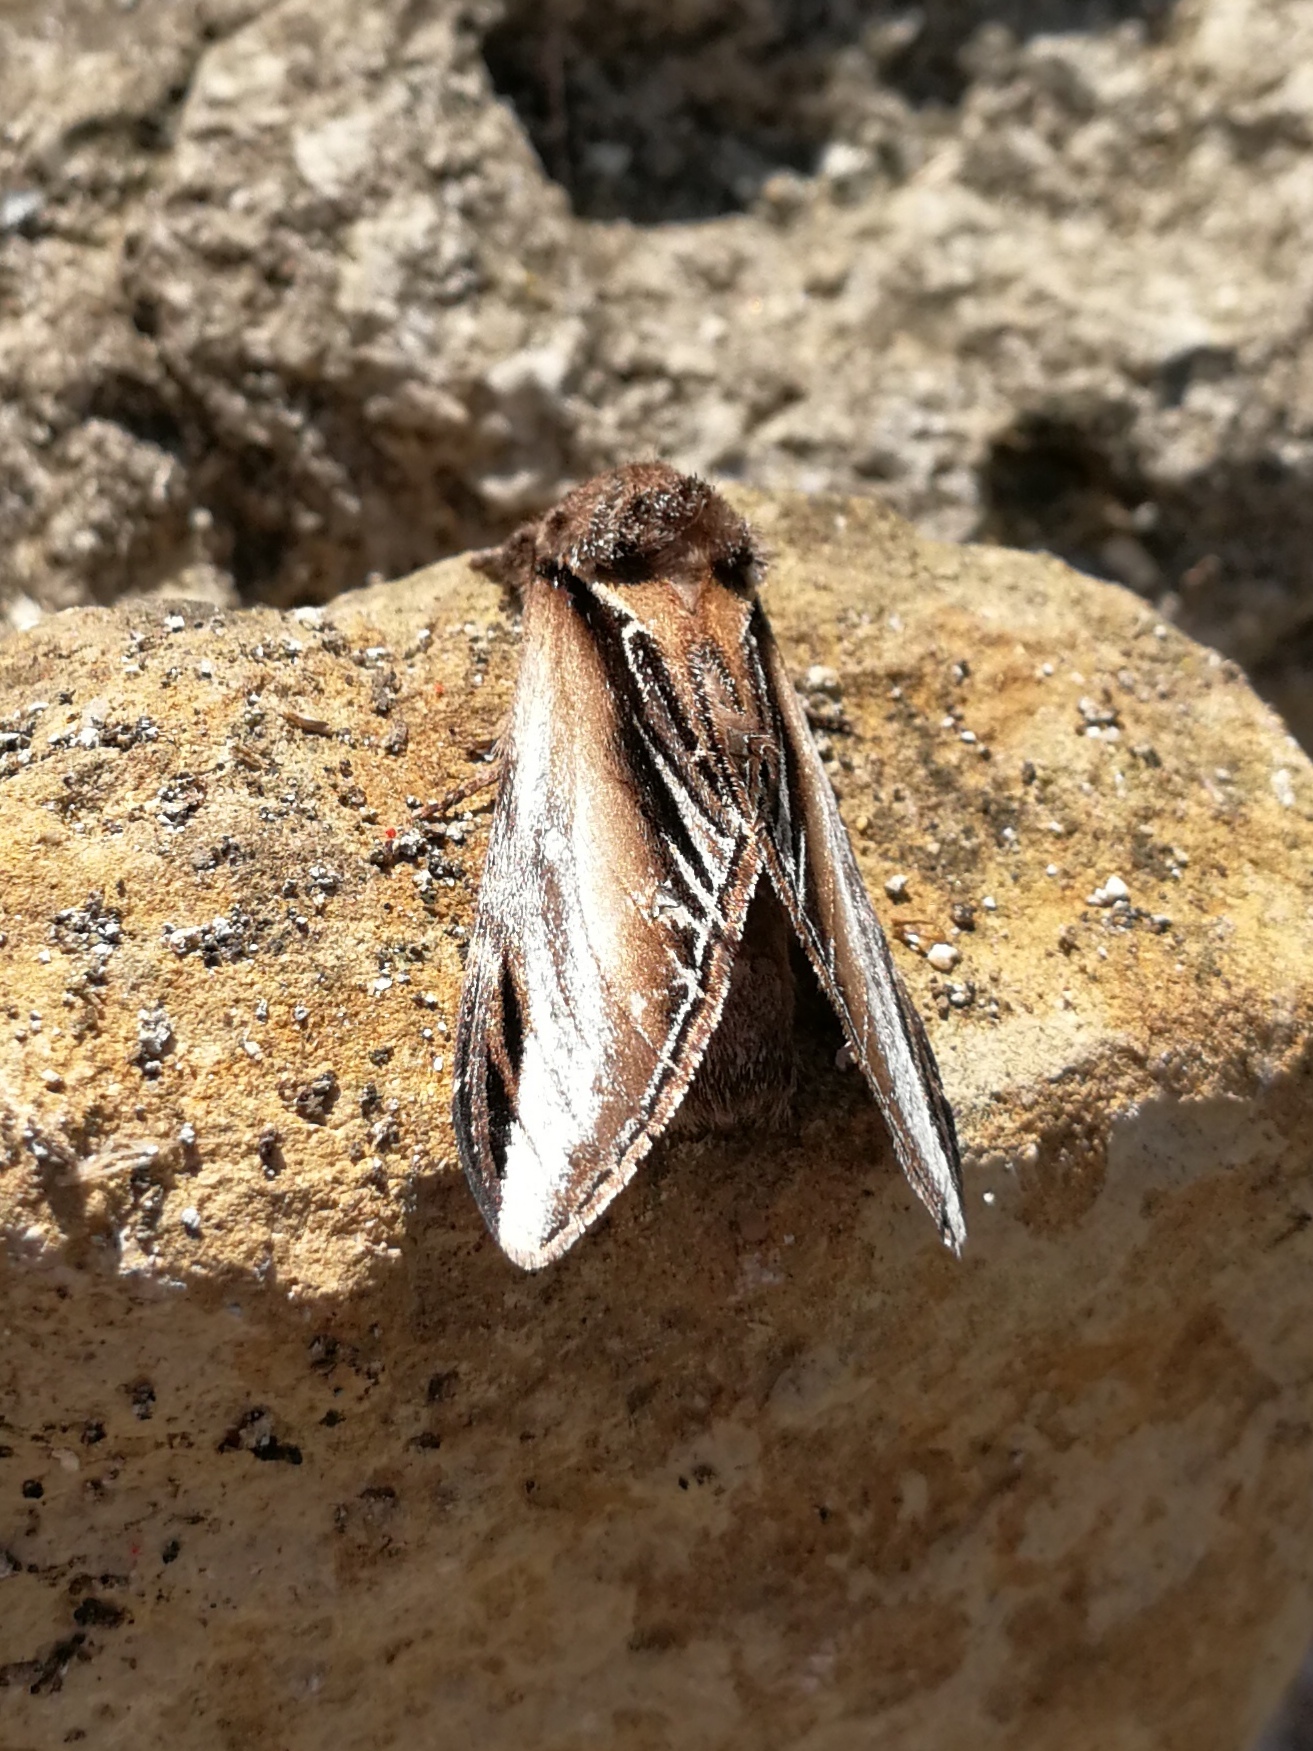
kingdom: Animalia
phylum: Arthropoda
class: Insecta
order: Lepidoptera
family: Notodontidae
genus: Pheosia
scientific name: Pheosia tremula
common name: Swallow prominent
